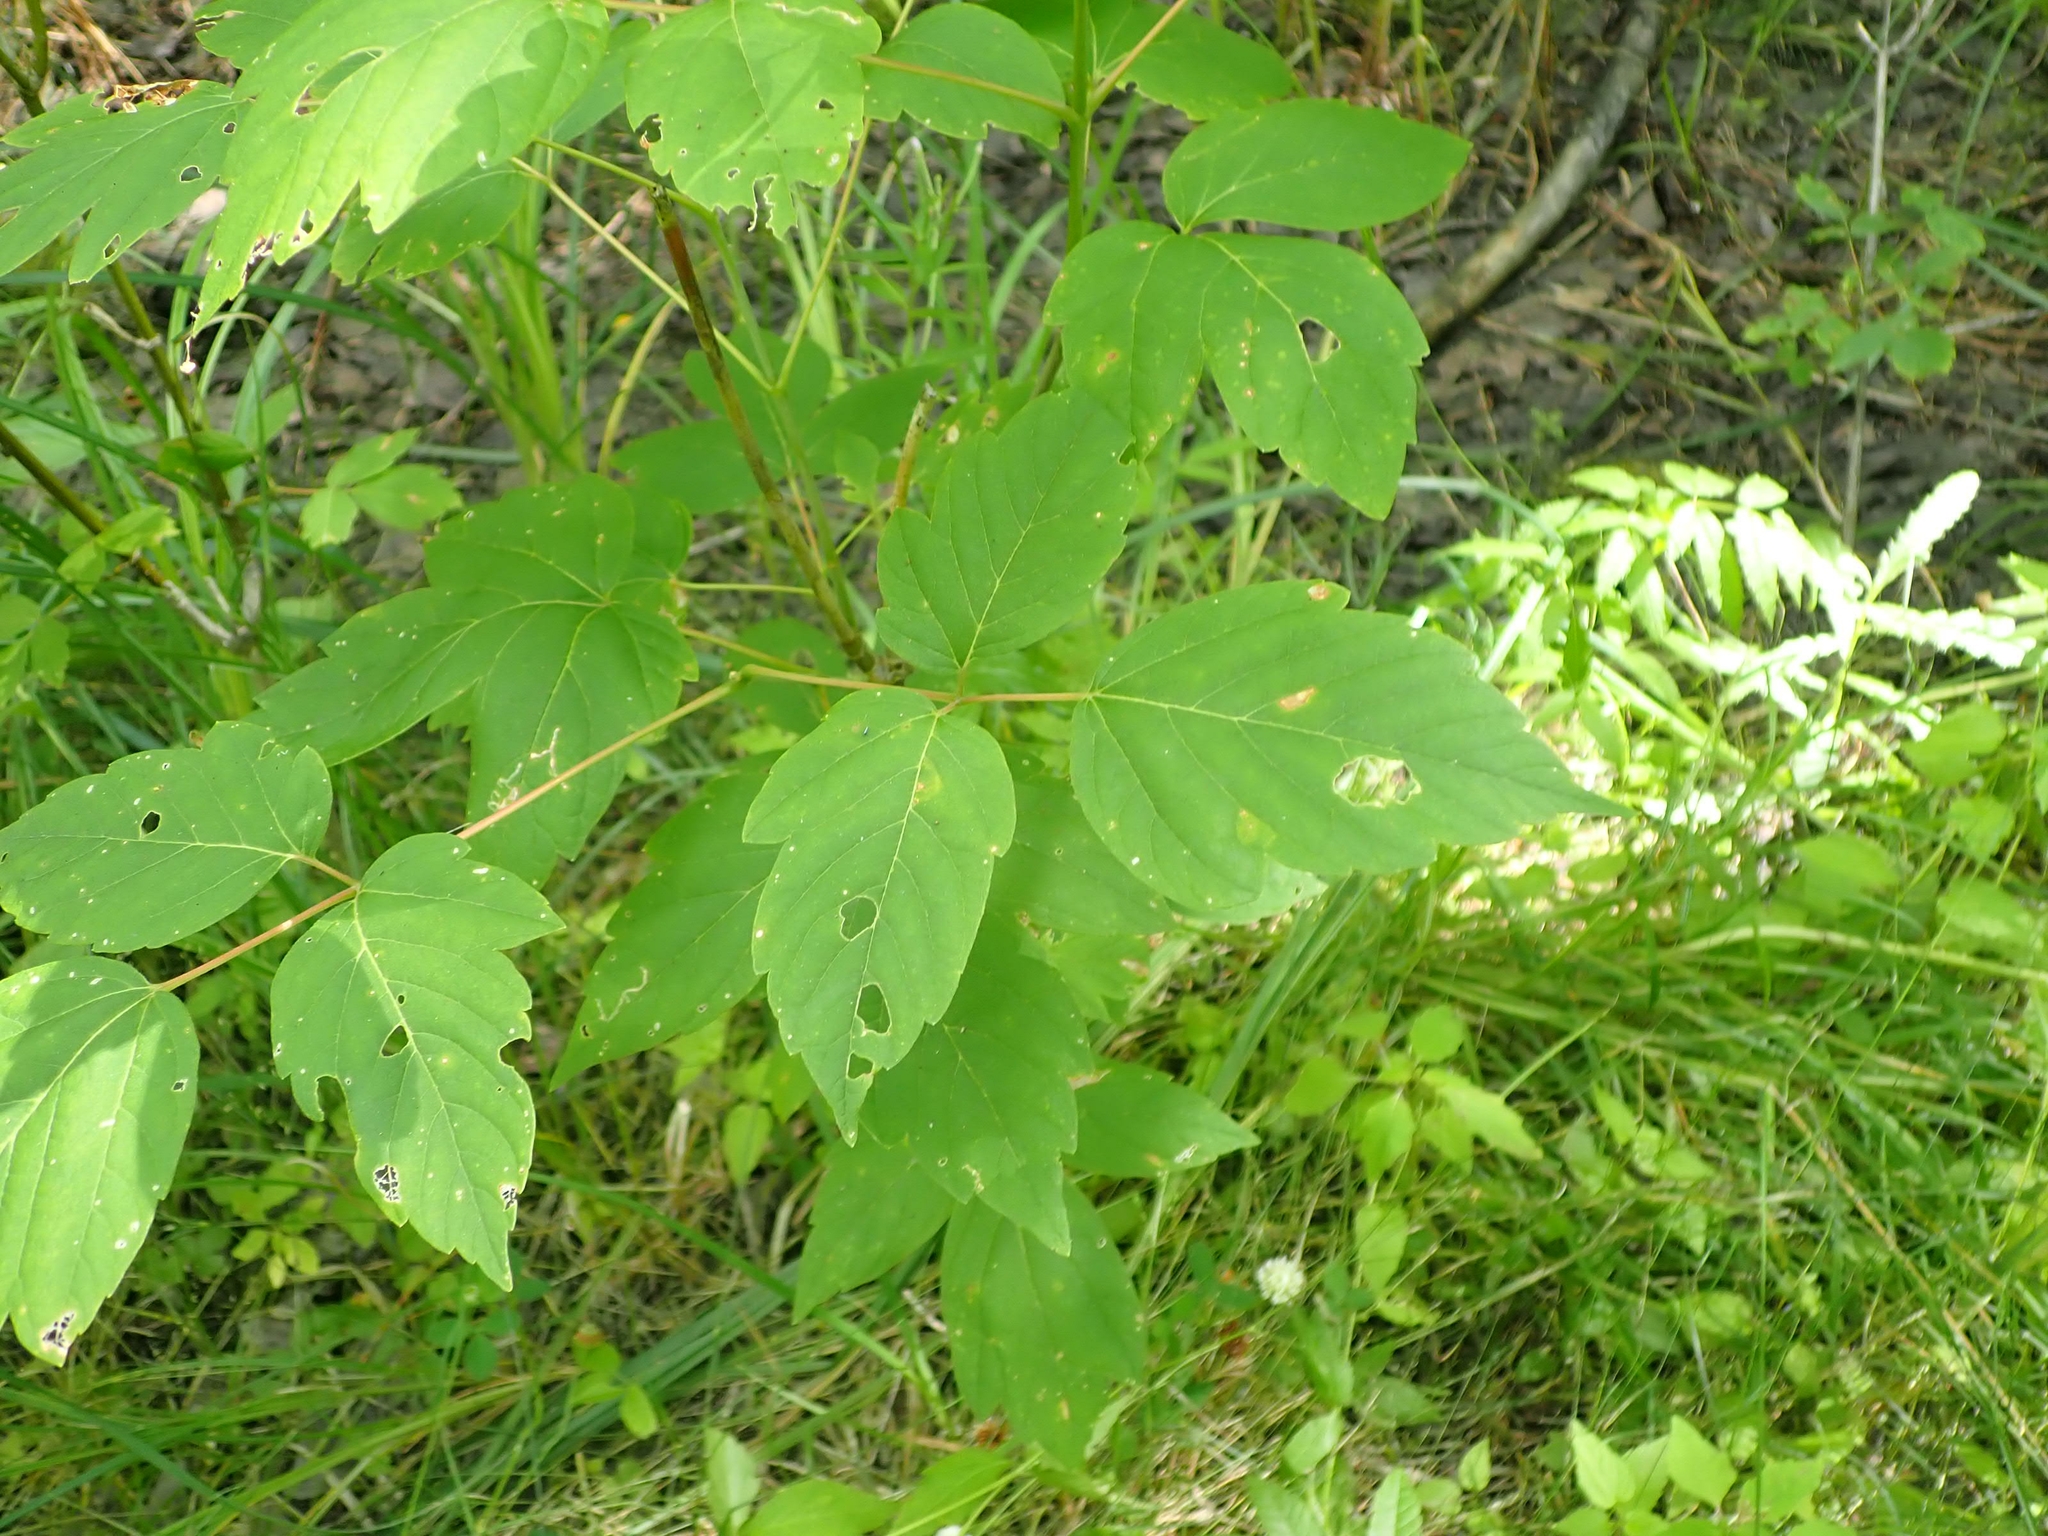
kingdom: Plantae
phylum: Tracheophyta
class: Magnoliopsida
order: Sapindales
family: Sapindaceae
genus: Acer
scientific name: Acer negundo
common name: Ashleaf maple
